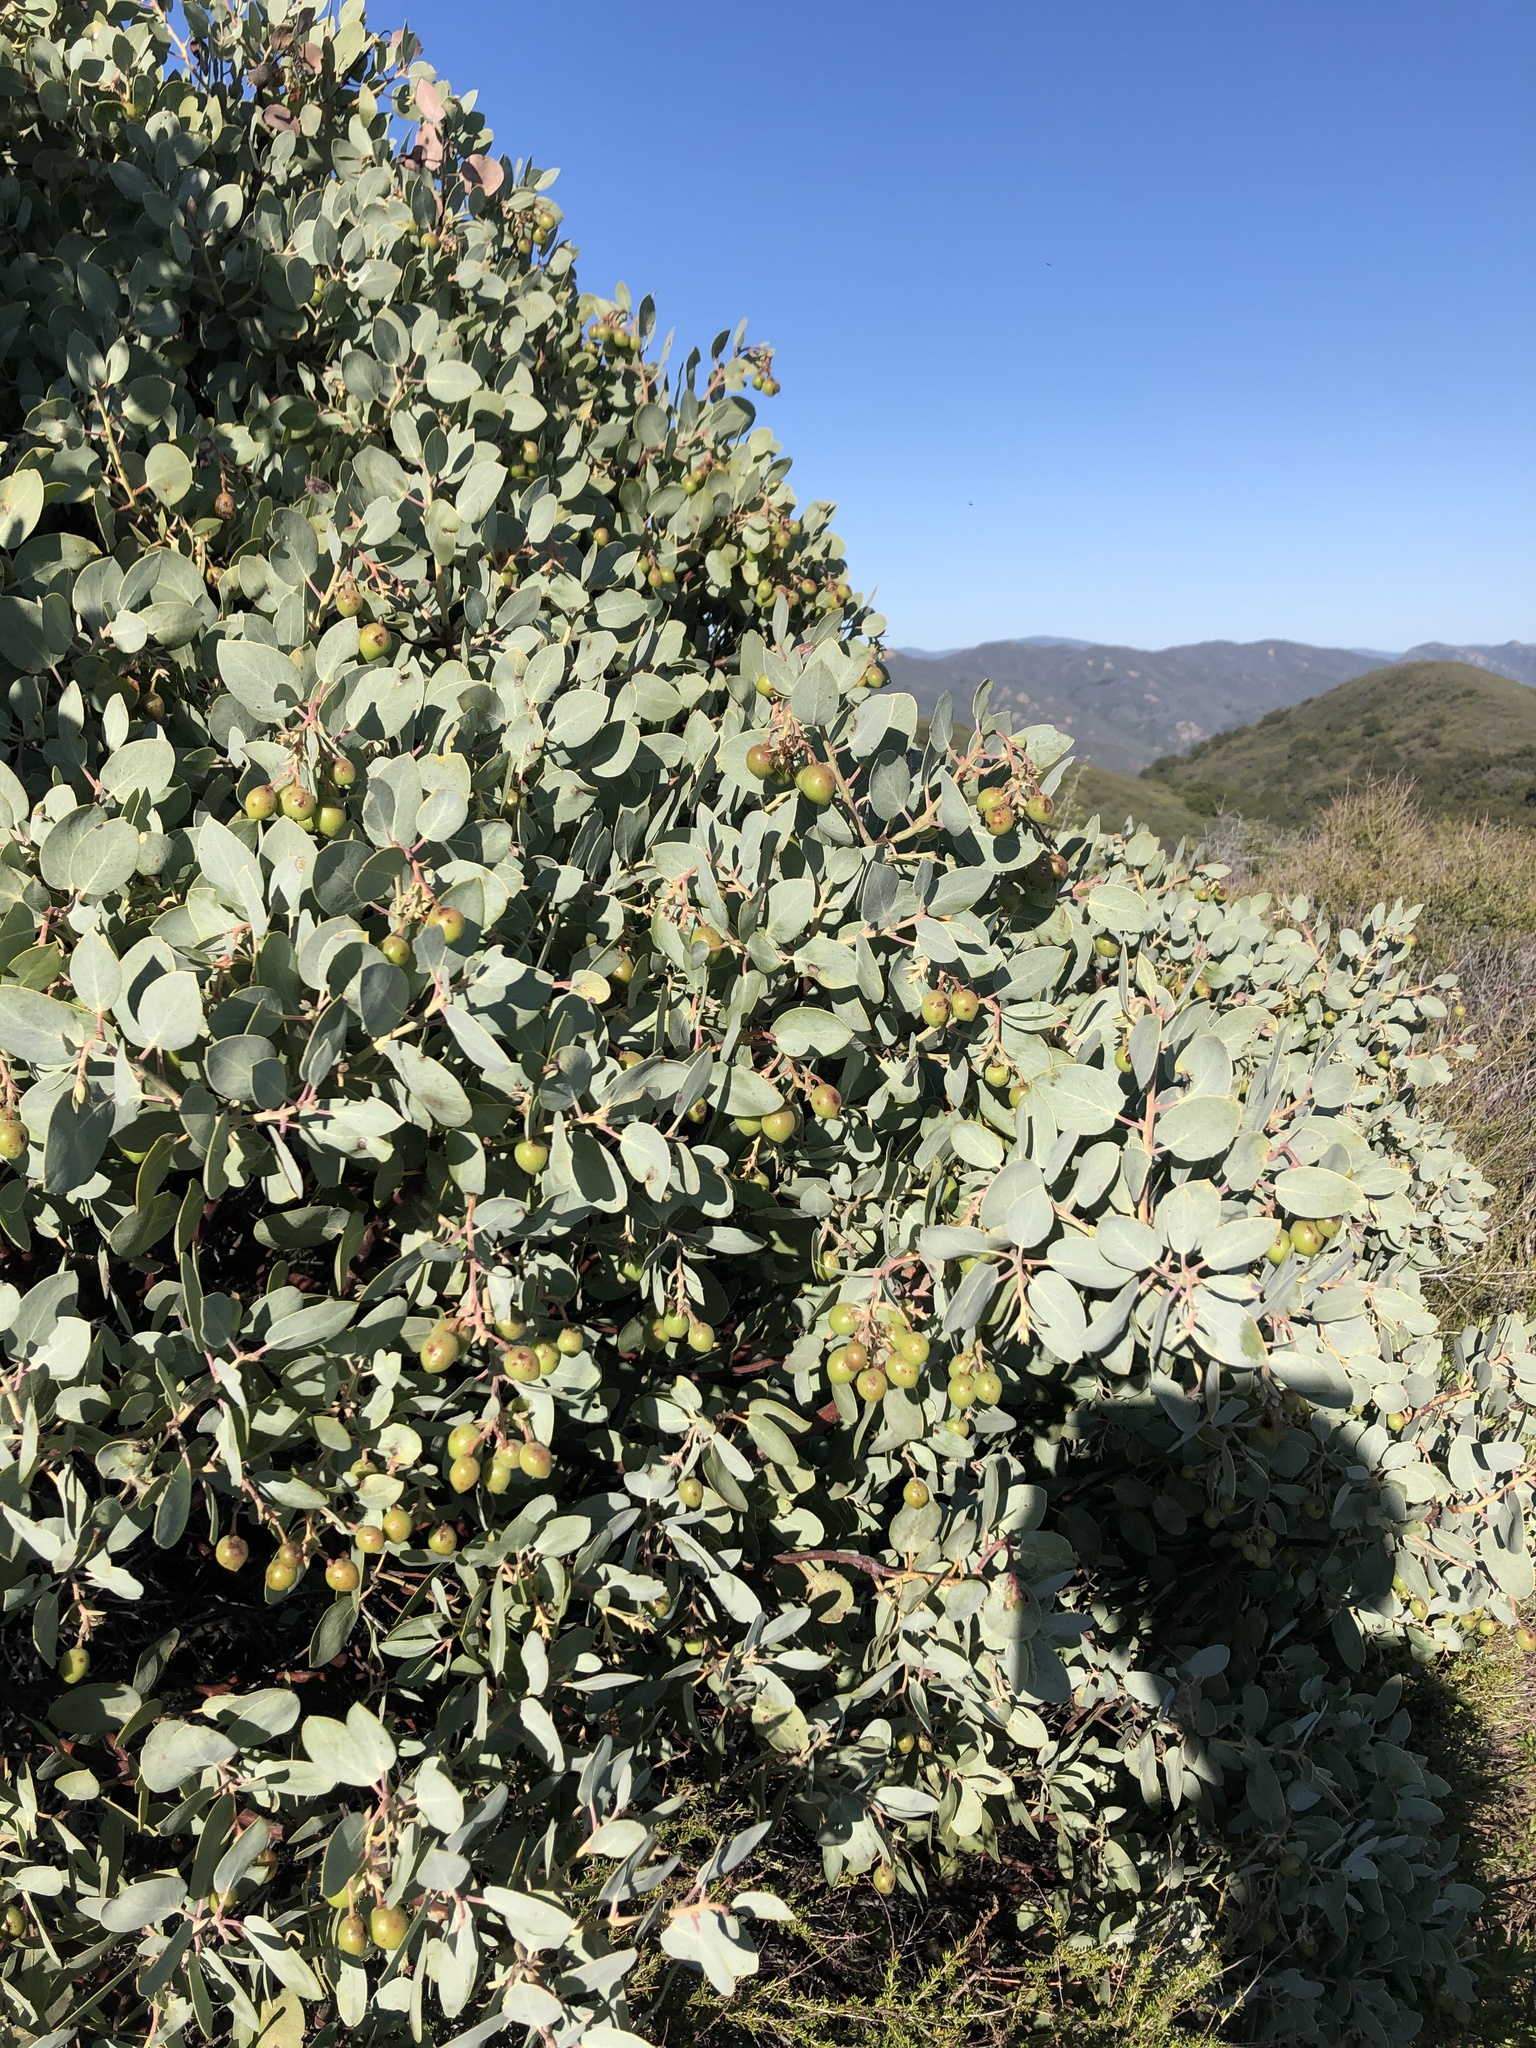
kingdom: Plantae
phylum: Tracheophyta
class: Magnoliopsida
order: Ericales
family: Ericaceae
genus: Arctostaphylos
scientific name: Arctostaphylos glauca
